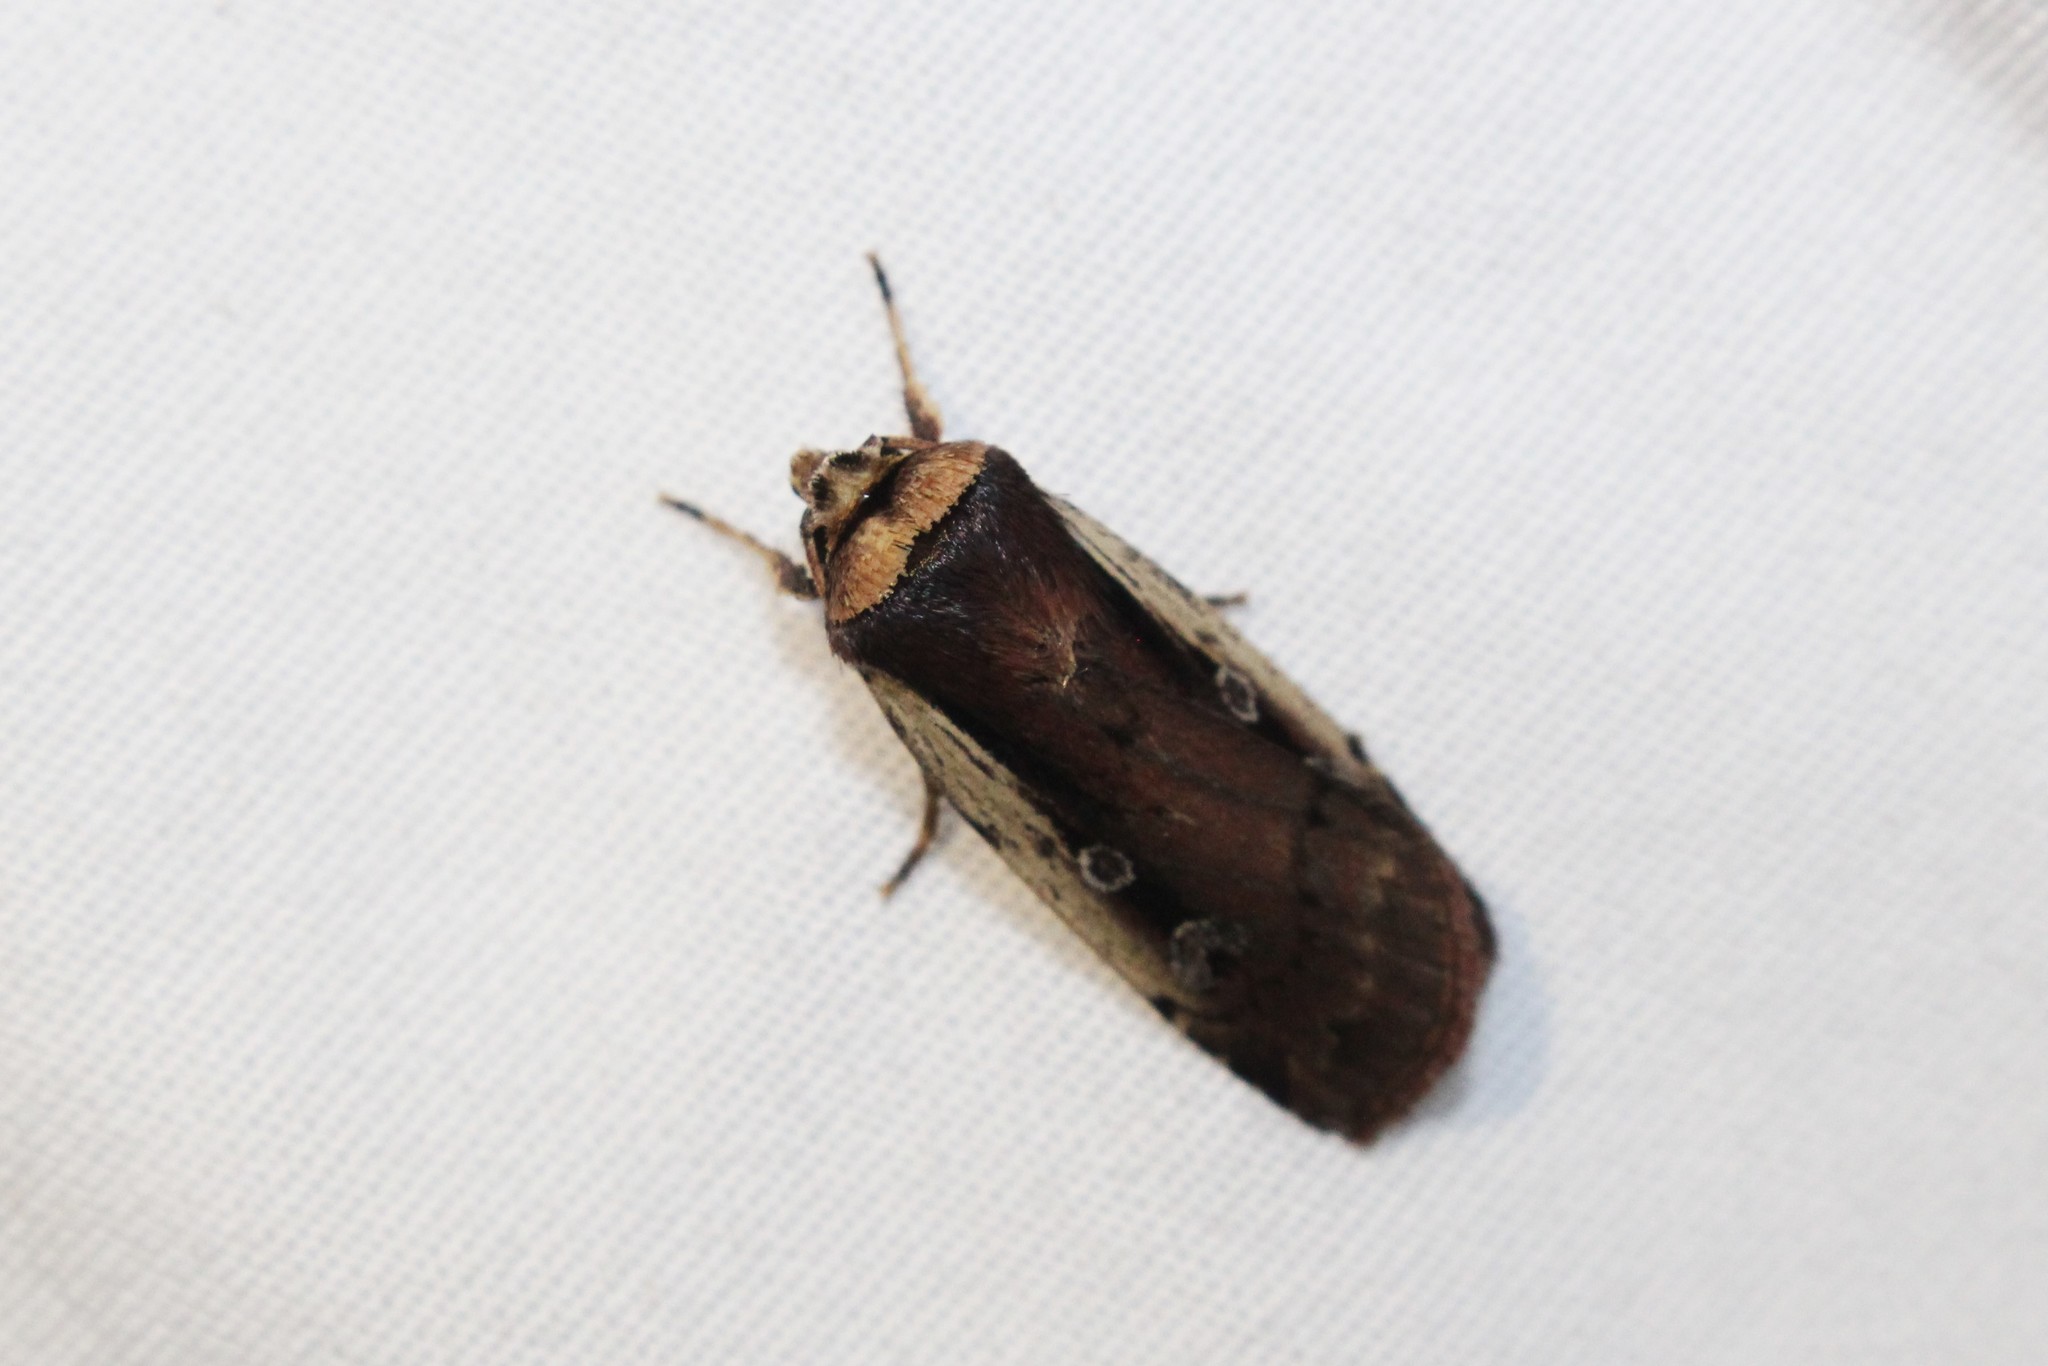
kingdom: Animalia
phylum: Arthropoda
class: Insecta
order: Lepidoptera
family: Noctuidae
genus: Ochropleura
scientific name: Ochropleura implecta
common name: Flame-shouldered dart
